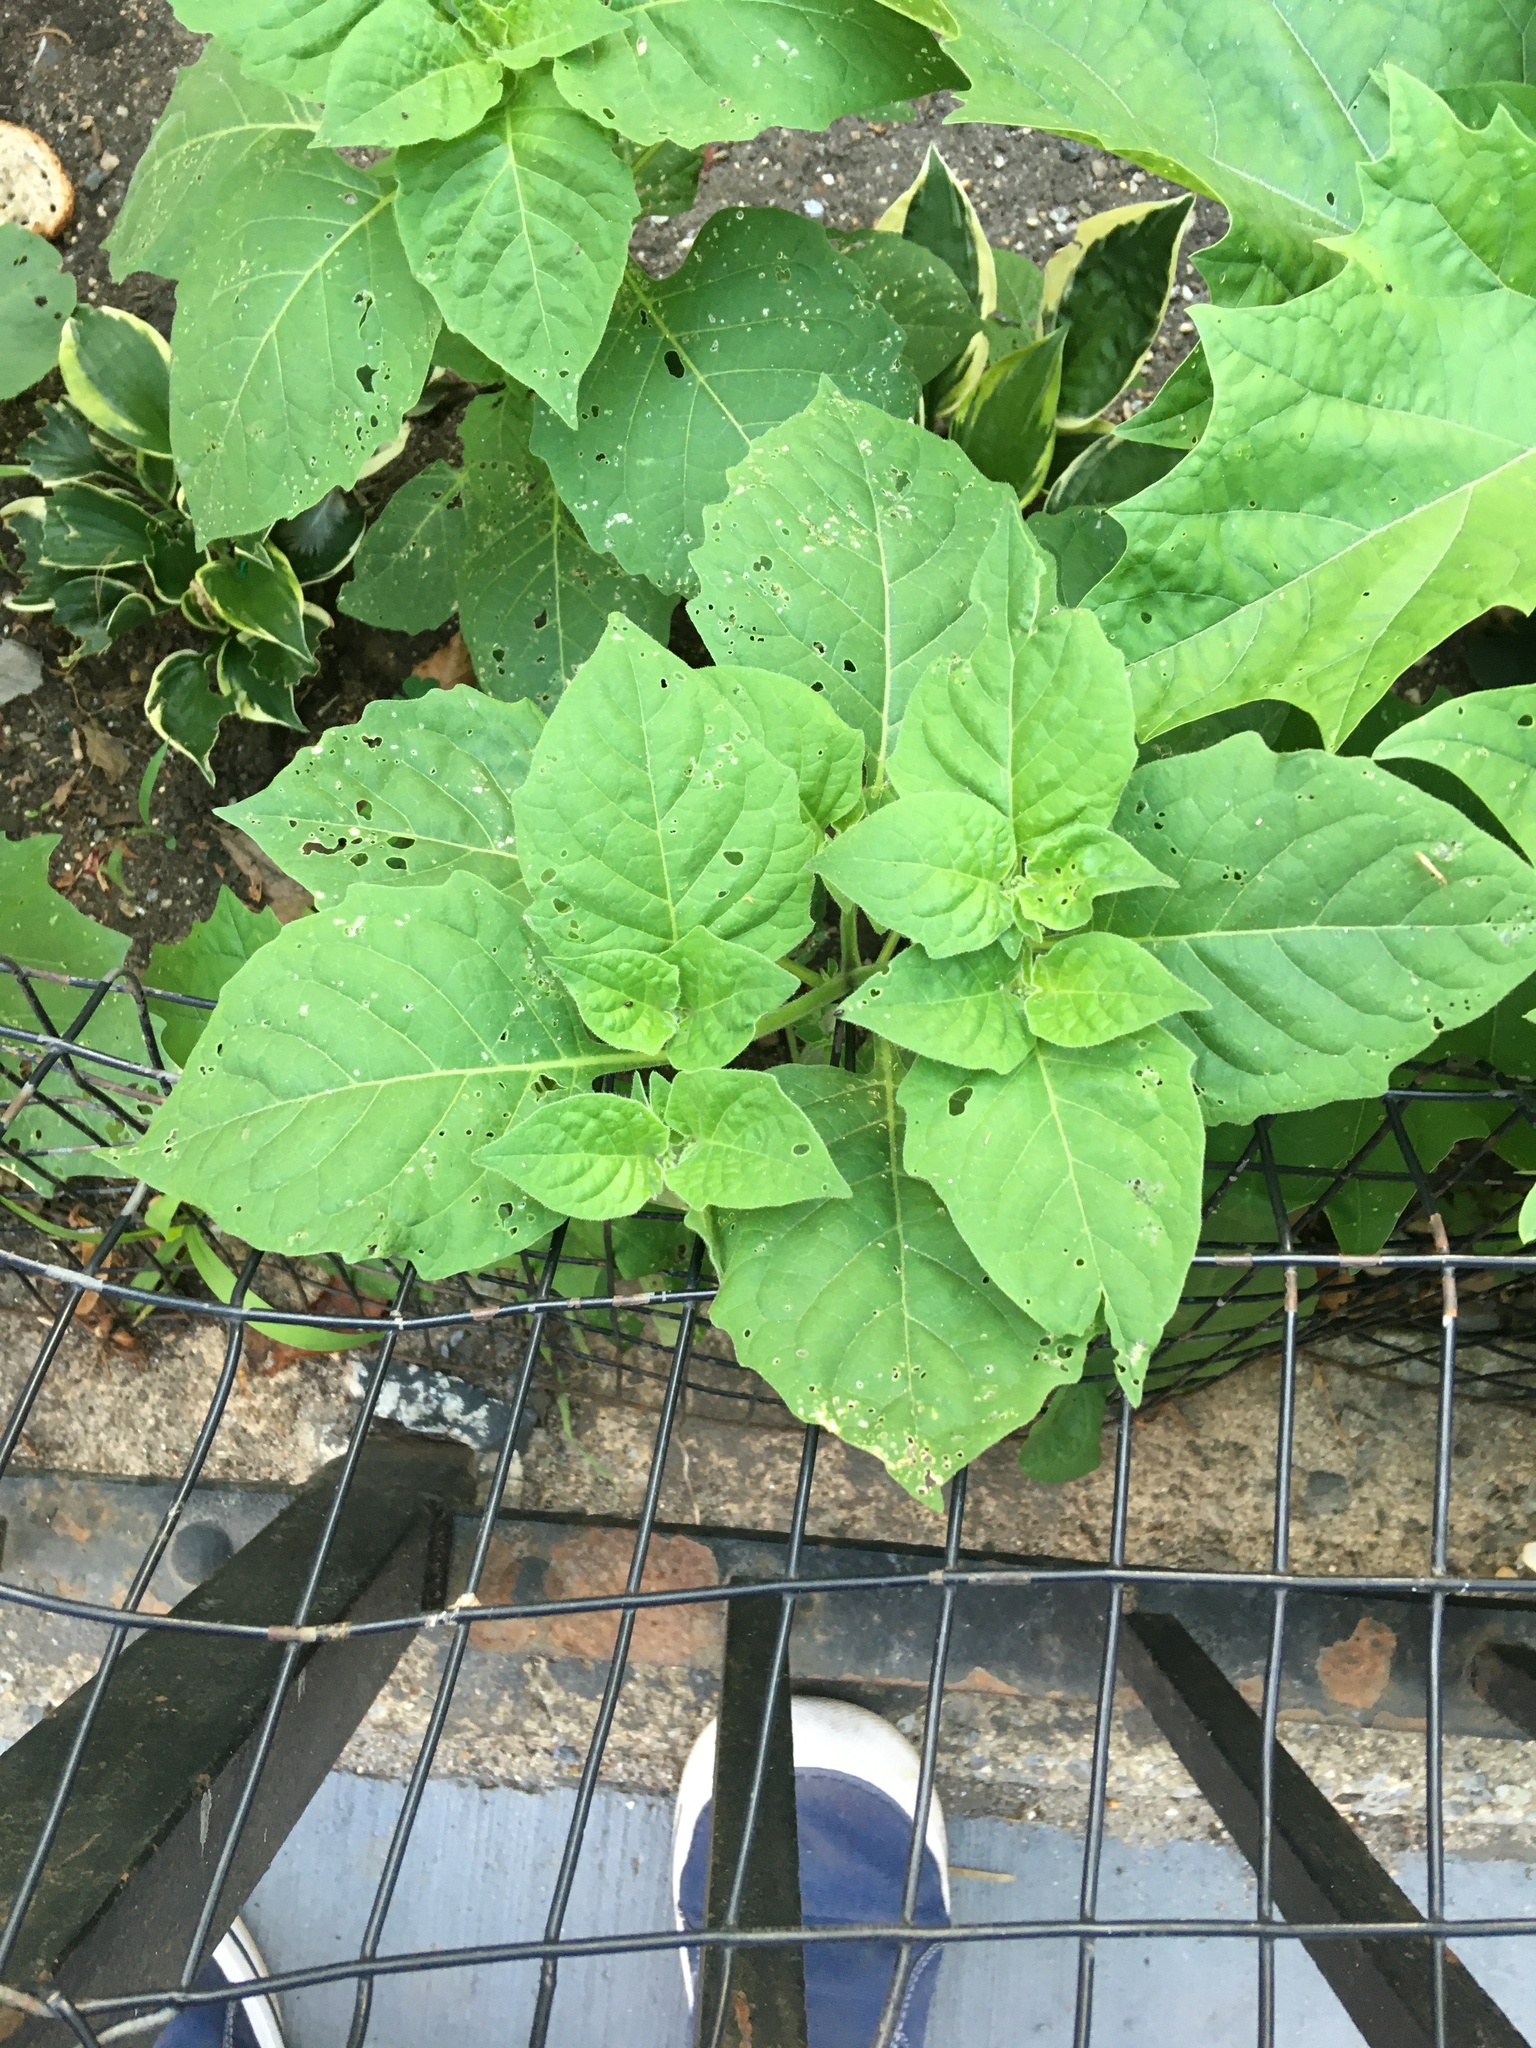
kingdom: Plantae
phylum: Tracheophyta
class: Magnoliopsida
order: Solanales
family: Solanaceae
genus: Solanum
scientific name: Solanum nigrum
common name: Black nightshade
